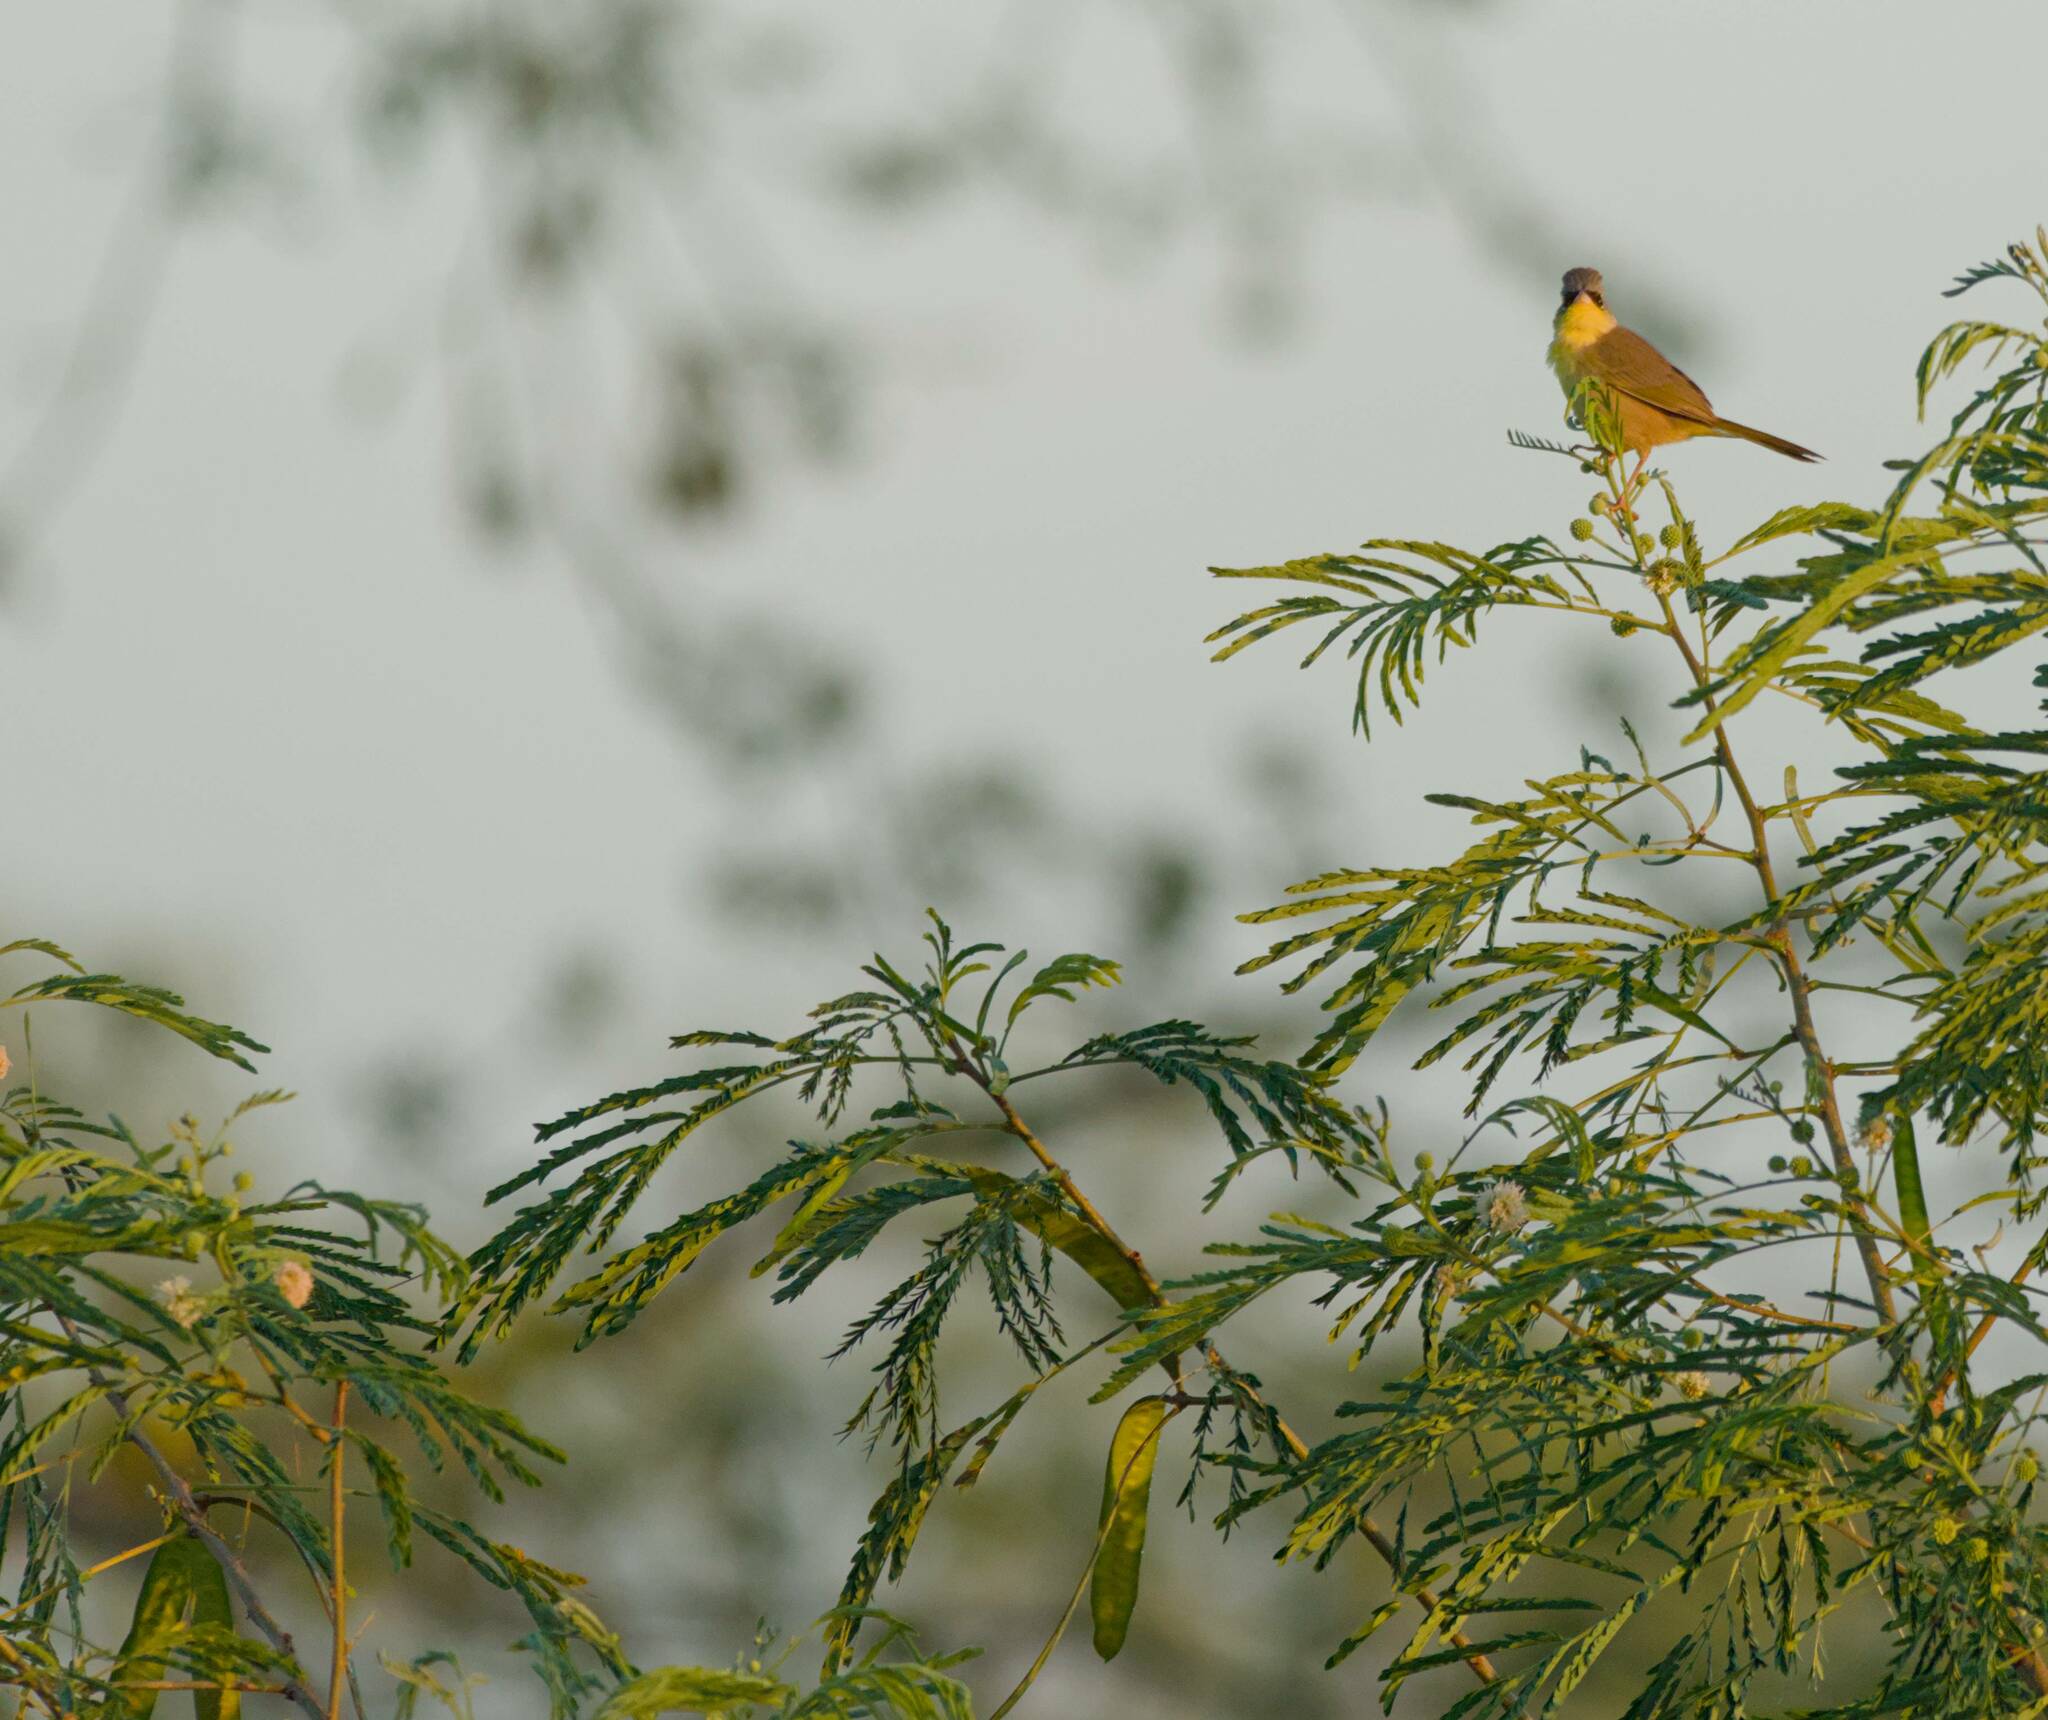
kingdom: Animalia
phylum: Chordata
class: Aves
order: Passeriformes
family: Parulidae
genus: Geothlypis
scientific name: Geothlypis poliocephala
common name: Gray-crowned yellowthroat
